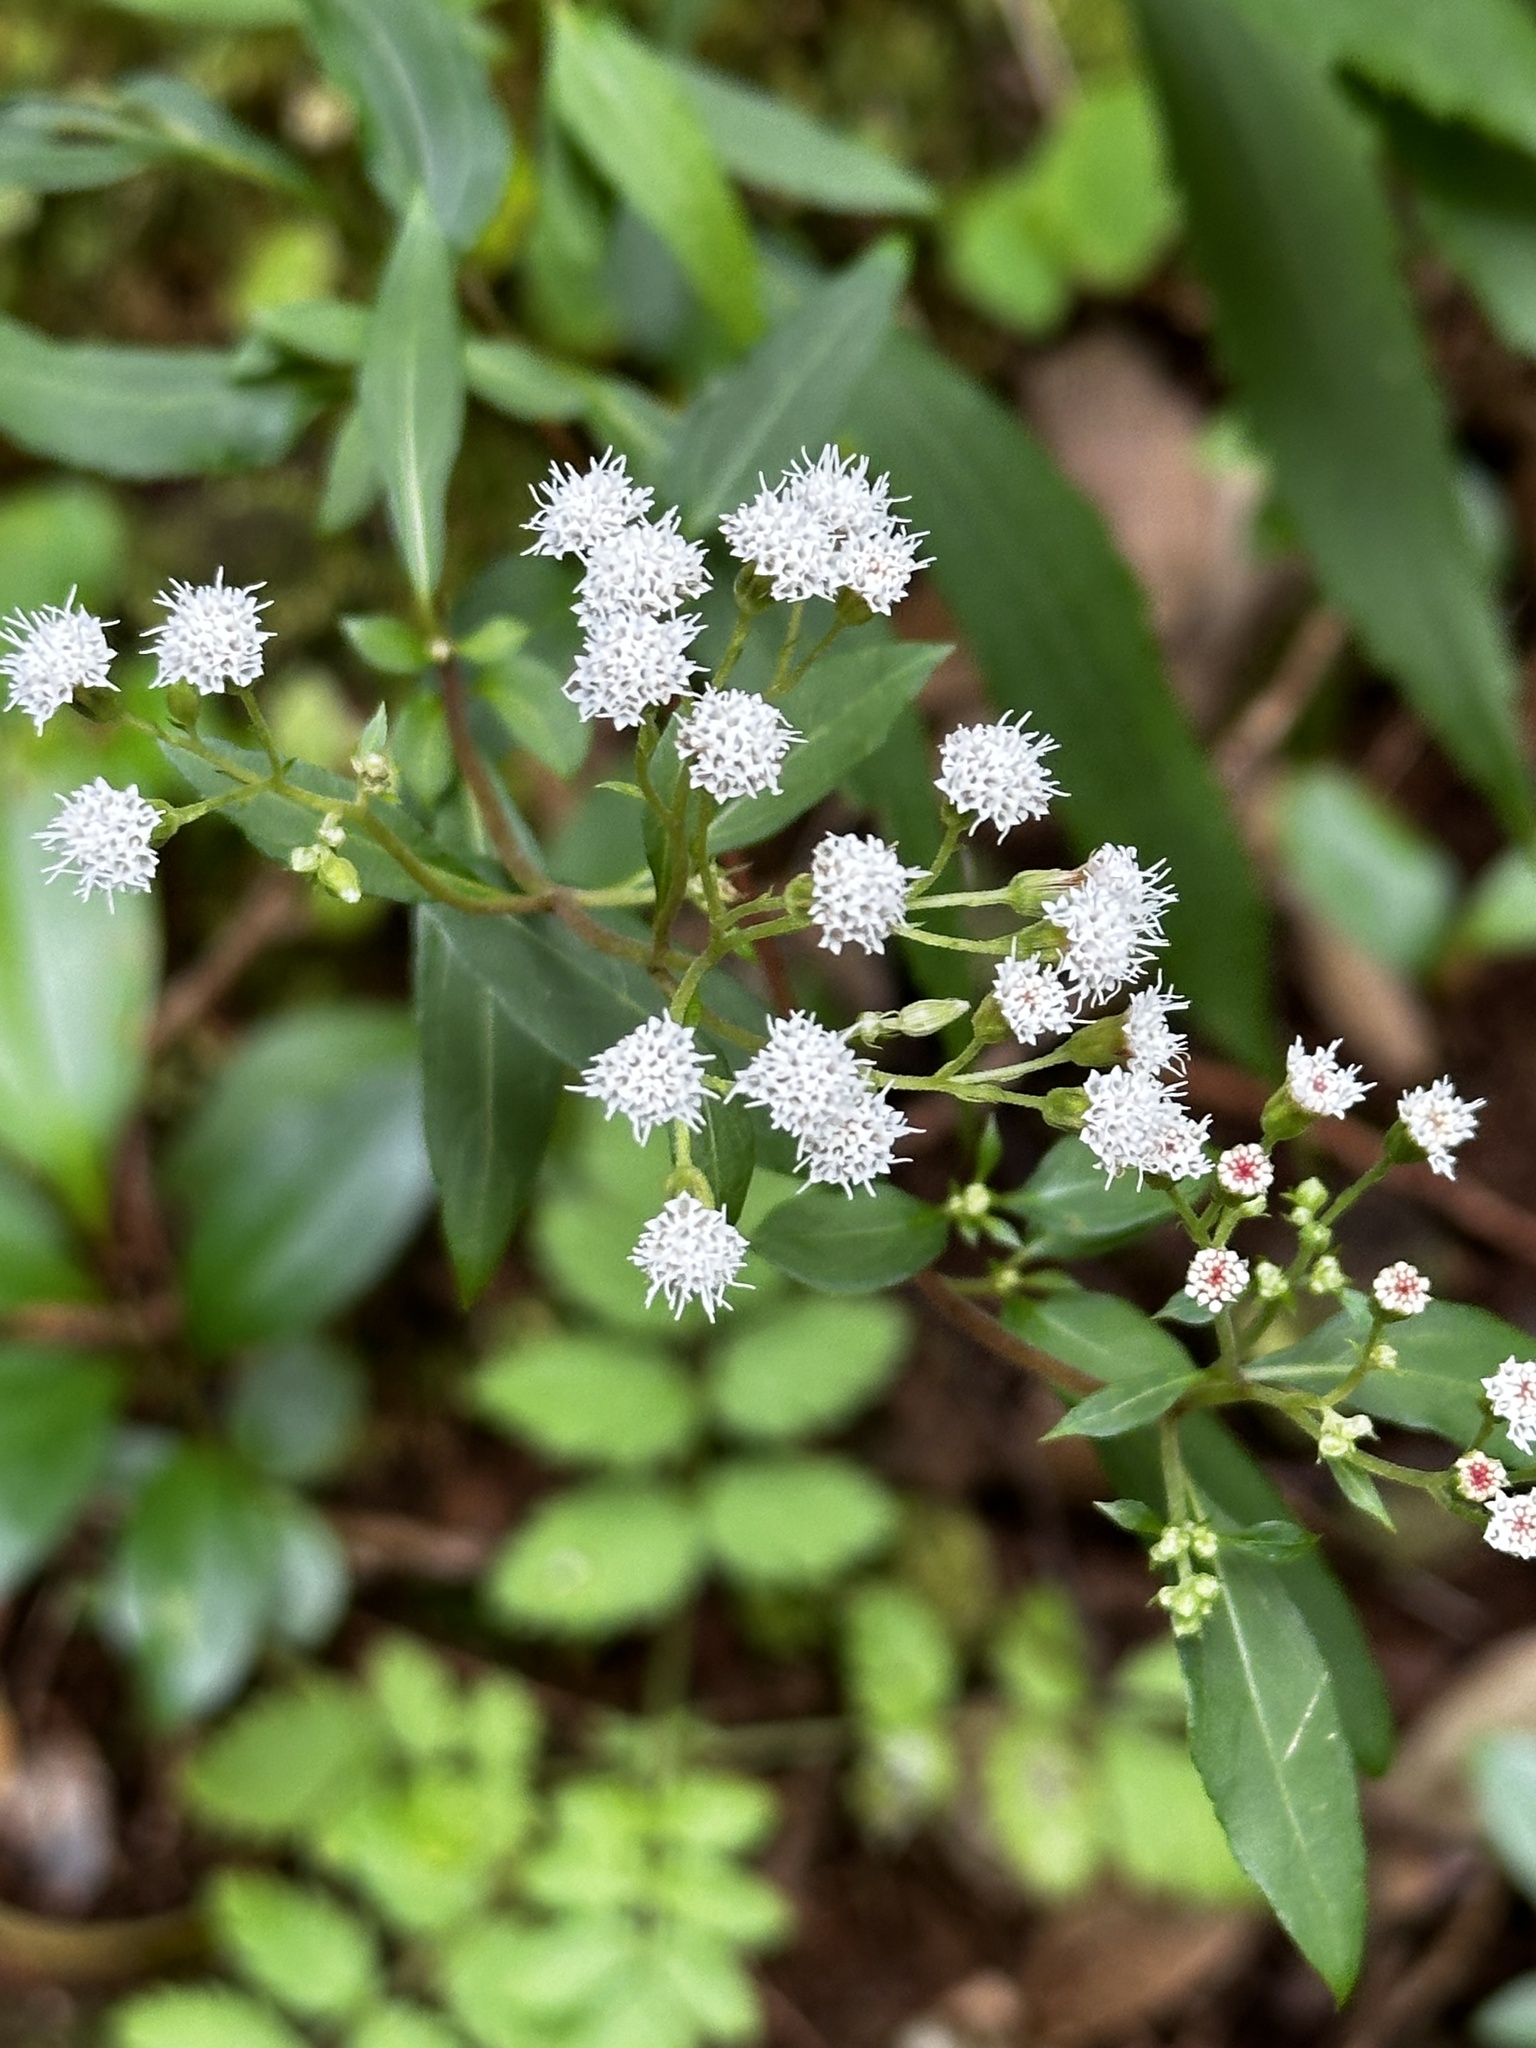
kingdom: Plantae
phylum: Tracheophyta
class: Magnoliopsida
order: Asterales
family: Asteraceae
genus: Ageratina
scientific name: Ageratina riparia
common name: Creeping croftonweed
